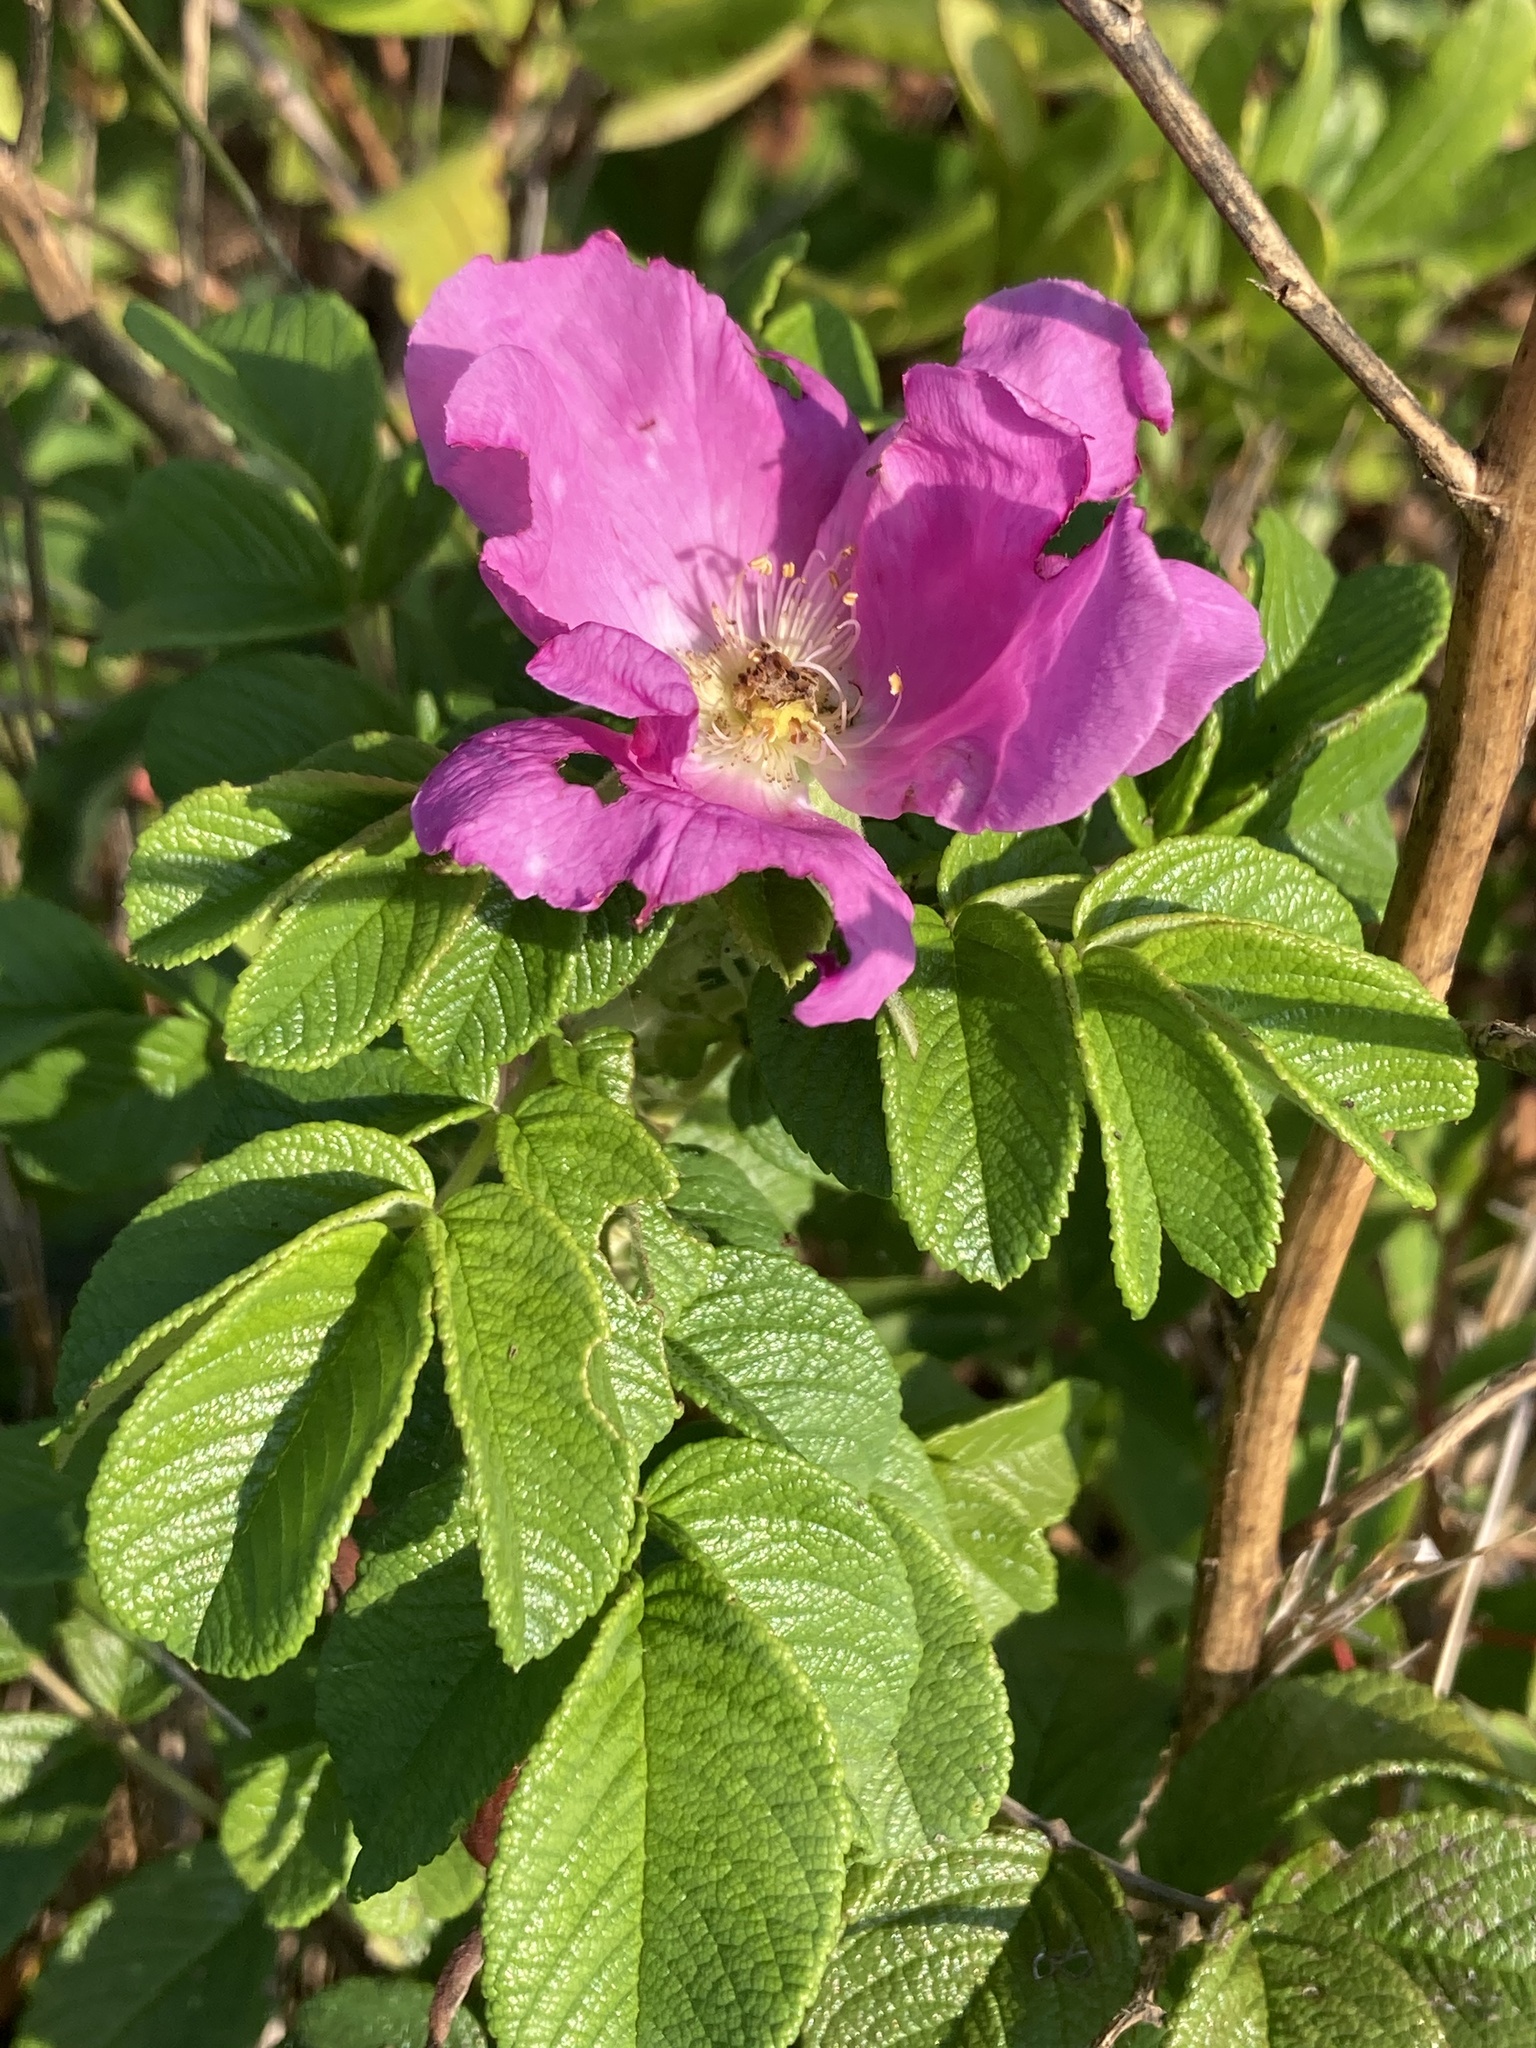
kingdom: Plantae
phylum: Tracheophyta
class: Magnoliopsida
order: Rosales
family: Rosaceae
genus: Rosa
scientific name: Rosa rugosa
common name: Japanese rose
